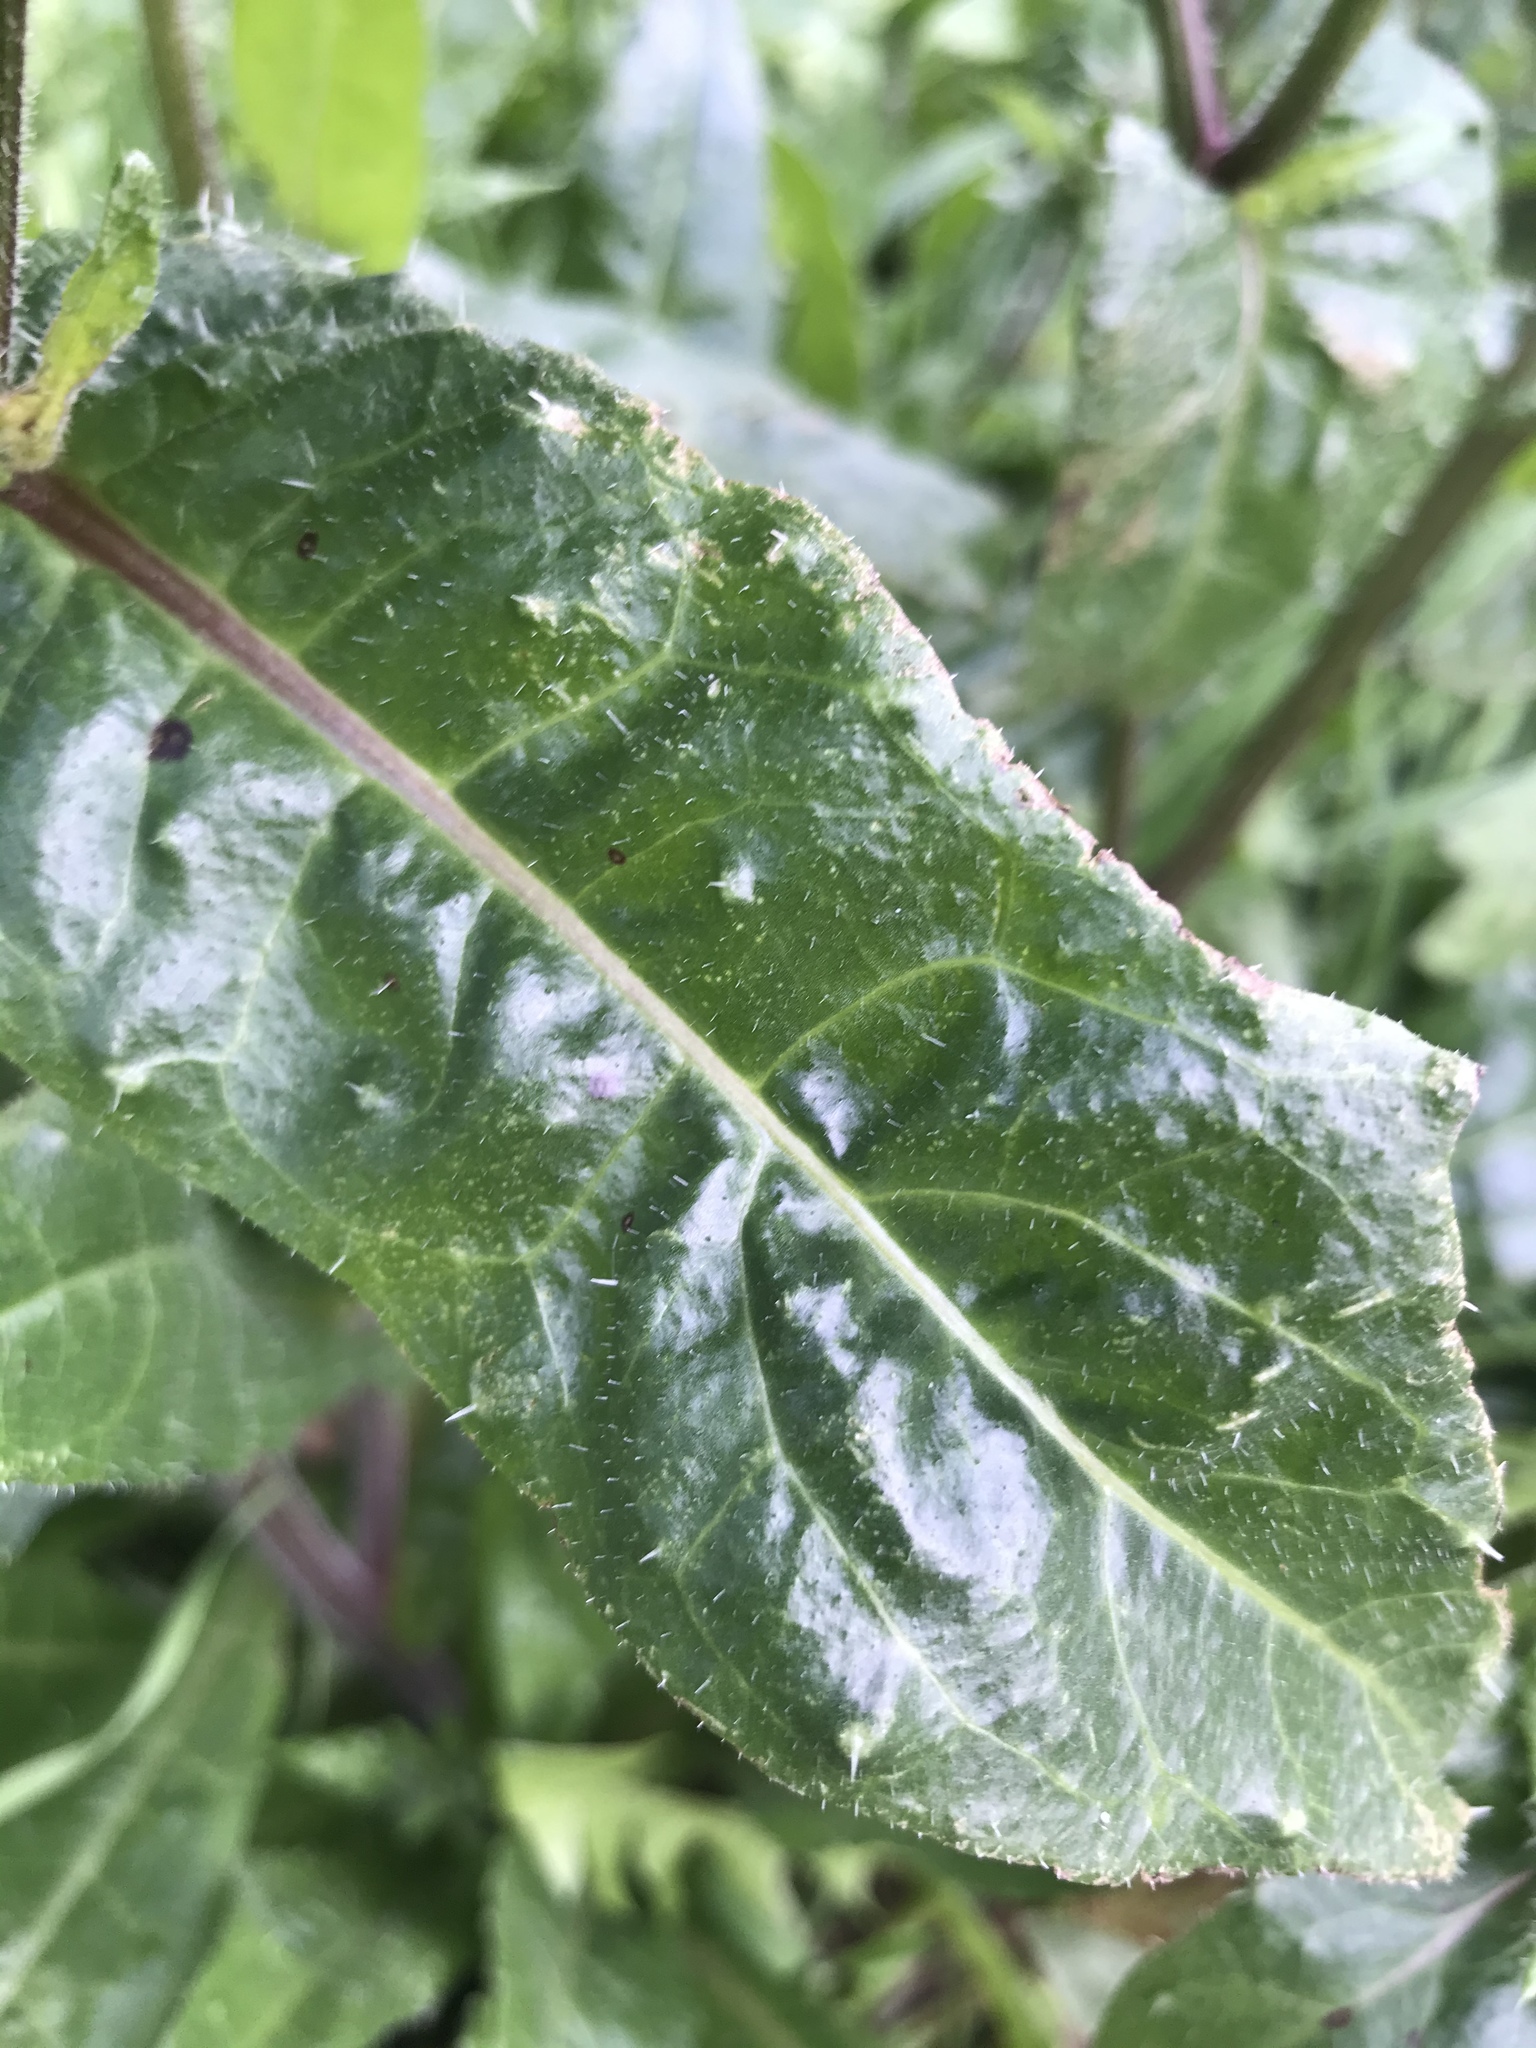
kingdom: Plantae
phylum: Tracheophyta
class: Magnoliopsida
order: Asterales
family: Asteraceae
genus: Helminthotheca
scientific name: Helminthotheca echioides
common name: Ox-tongue
